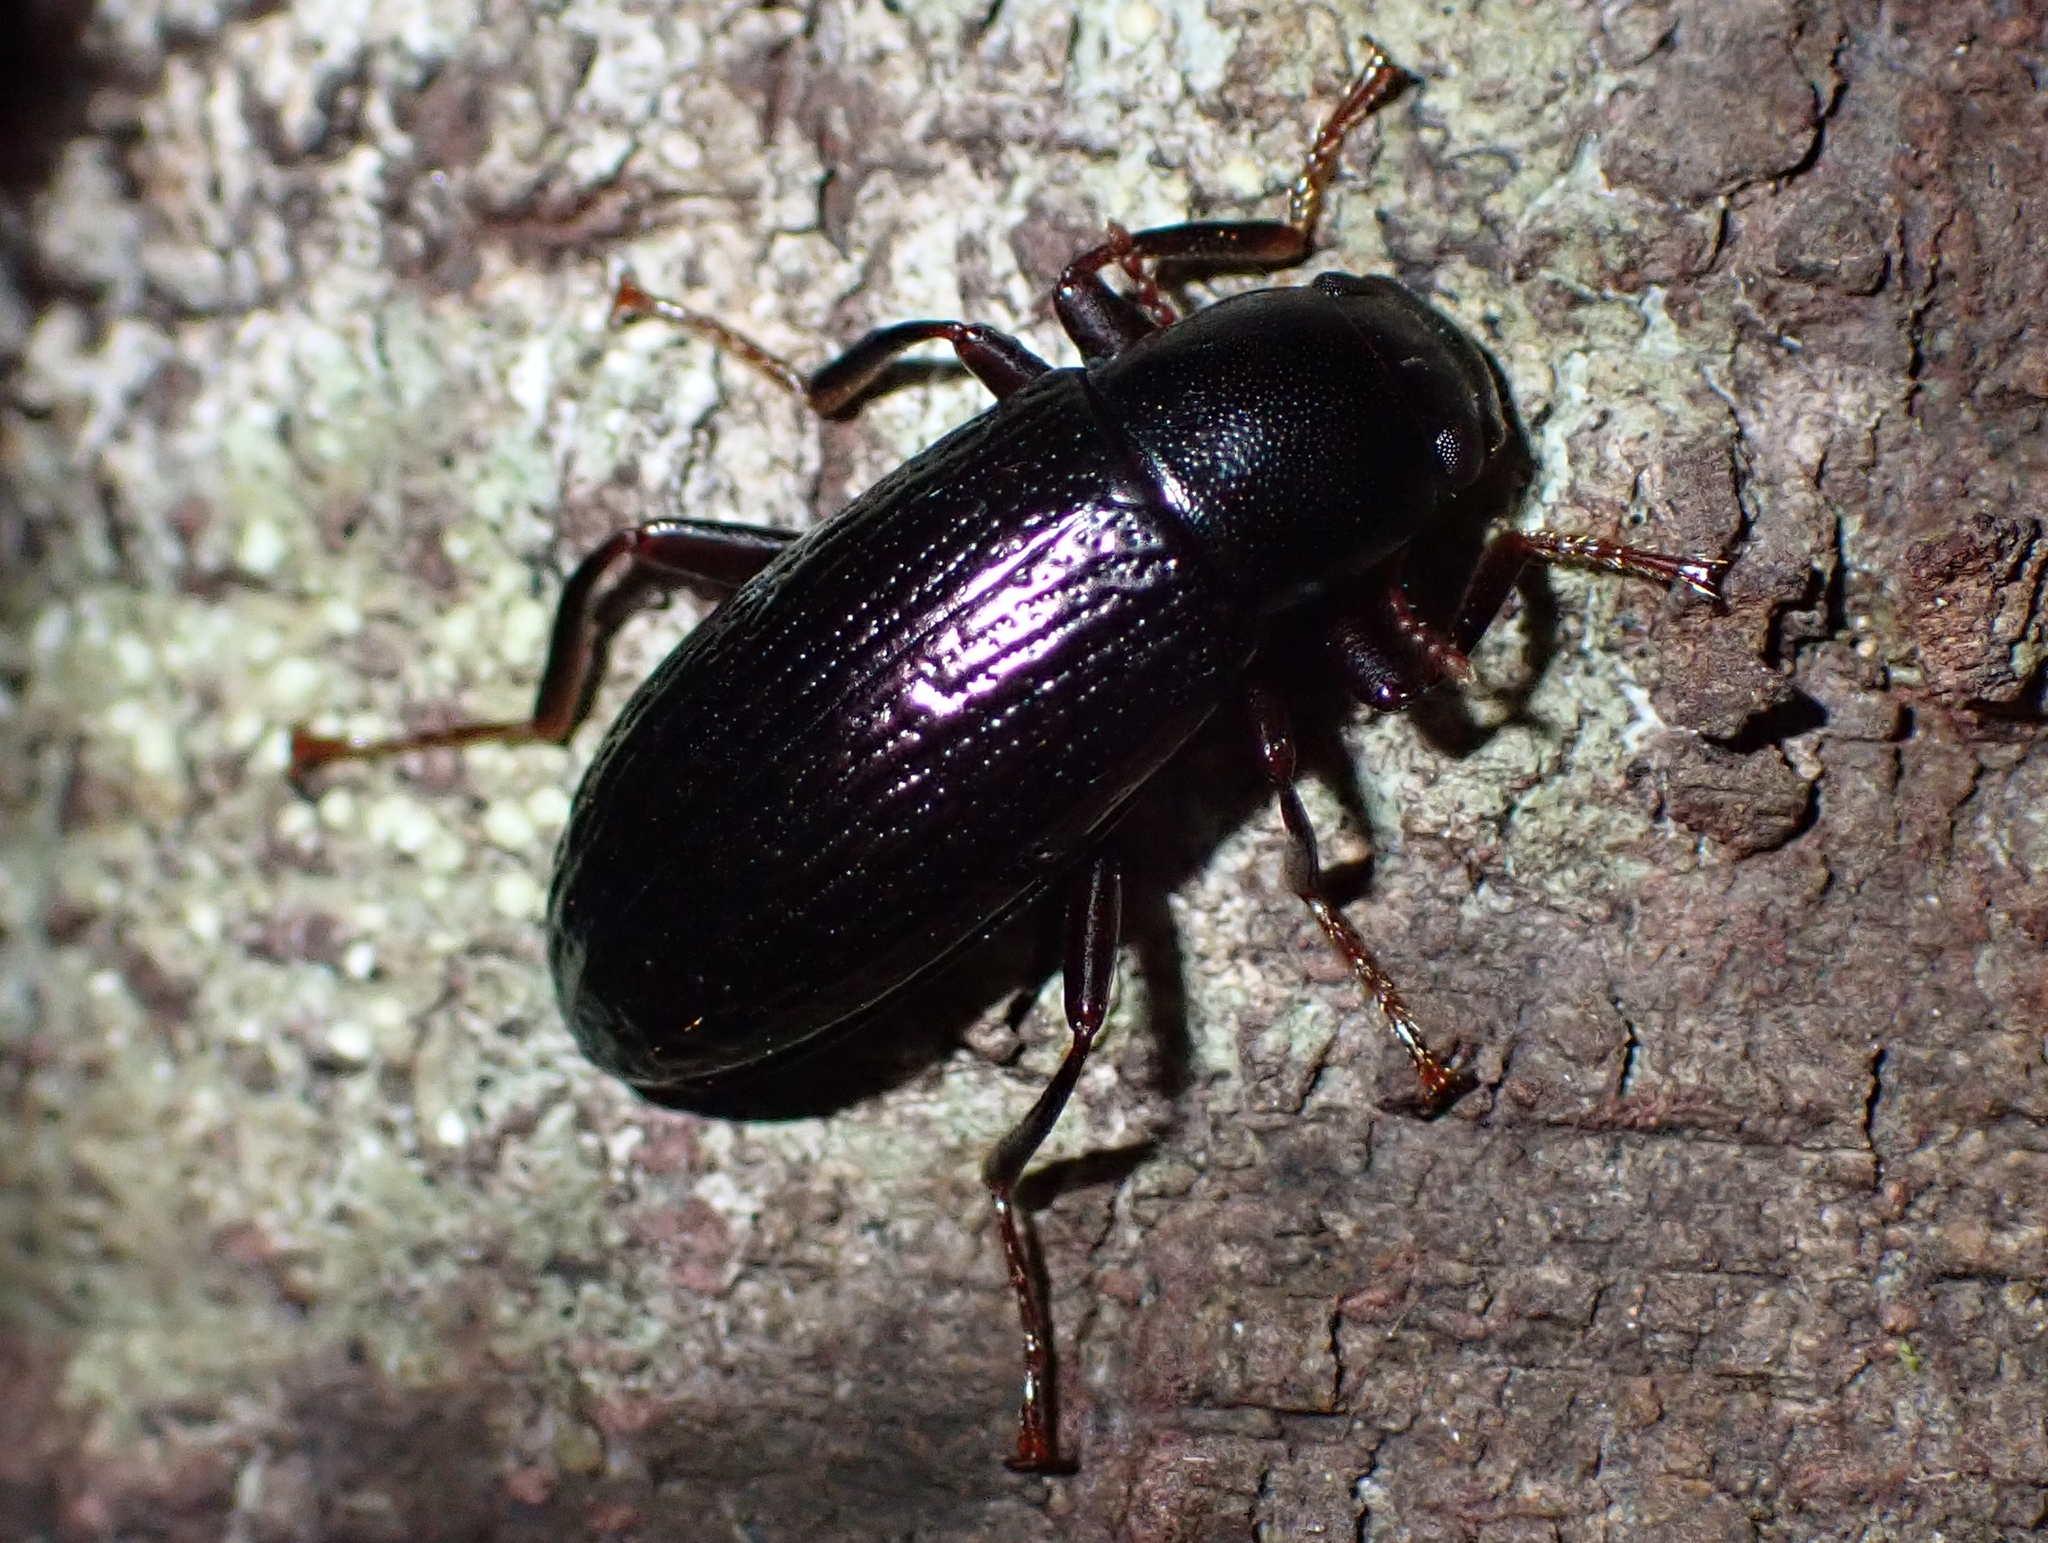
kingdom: Animalia
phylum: Arthropoda
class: Insecta
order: Coleoptera
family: Tenebrionidae
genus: Artystona
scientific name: Artystona
